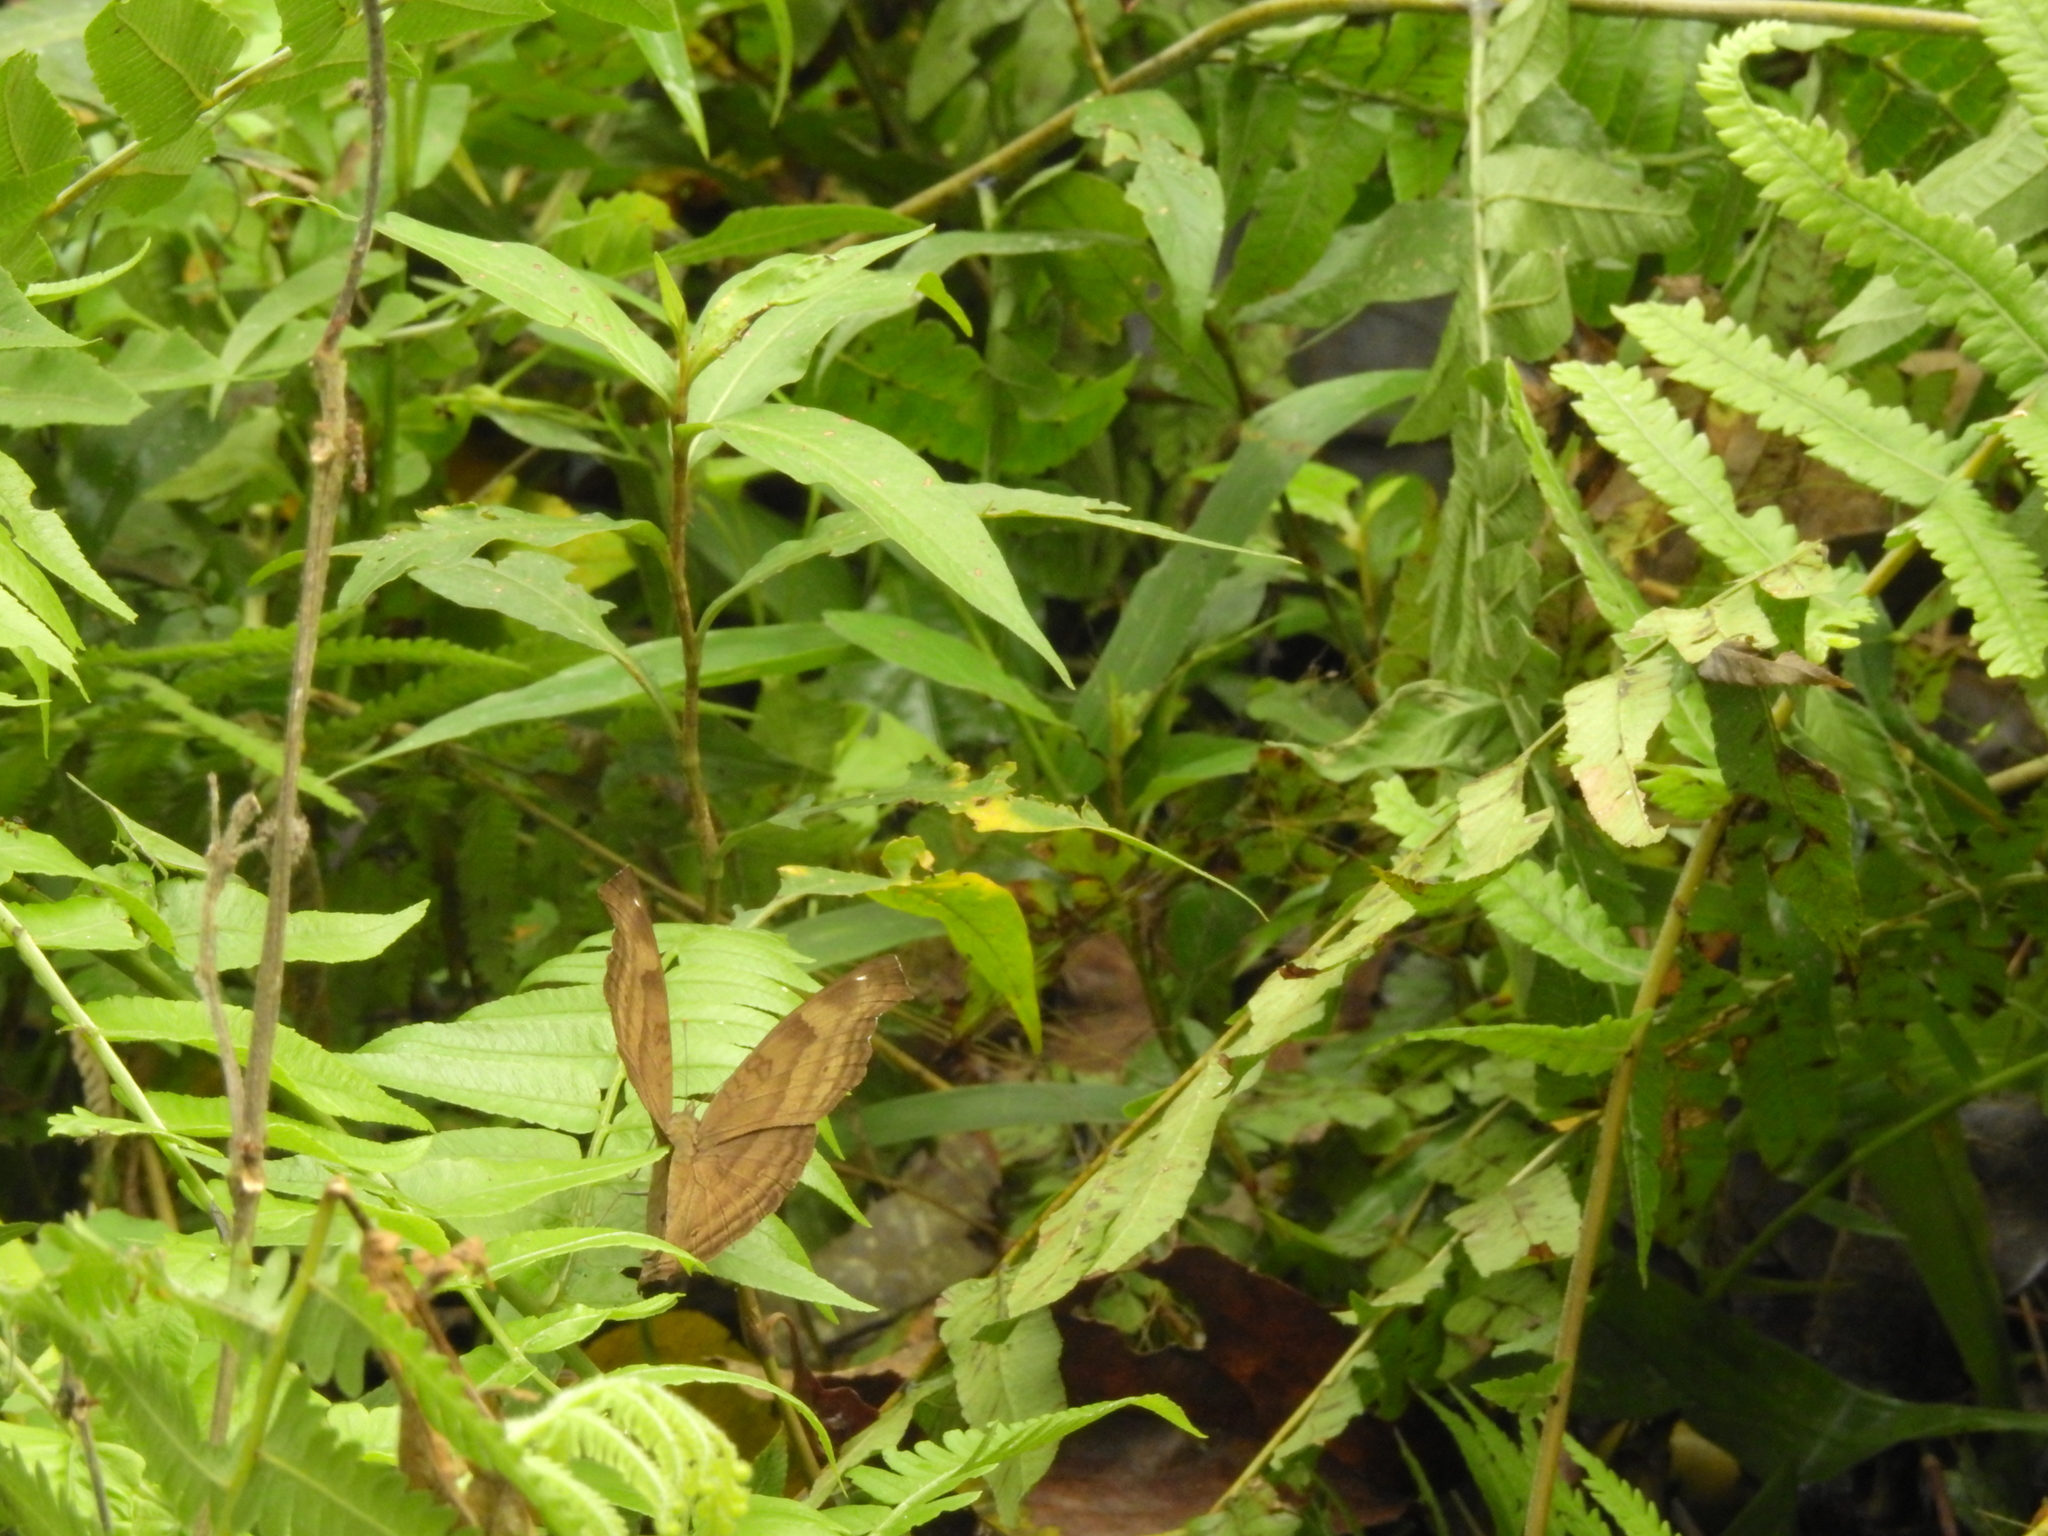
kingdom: Animalia
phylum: Arthropoda
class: Insecta
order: Lepidoptera
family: Nymphalidae
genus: Junonia
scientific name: Junonia iphita
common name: Chocolate pansy
